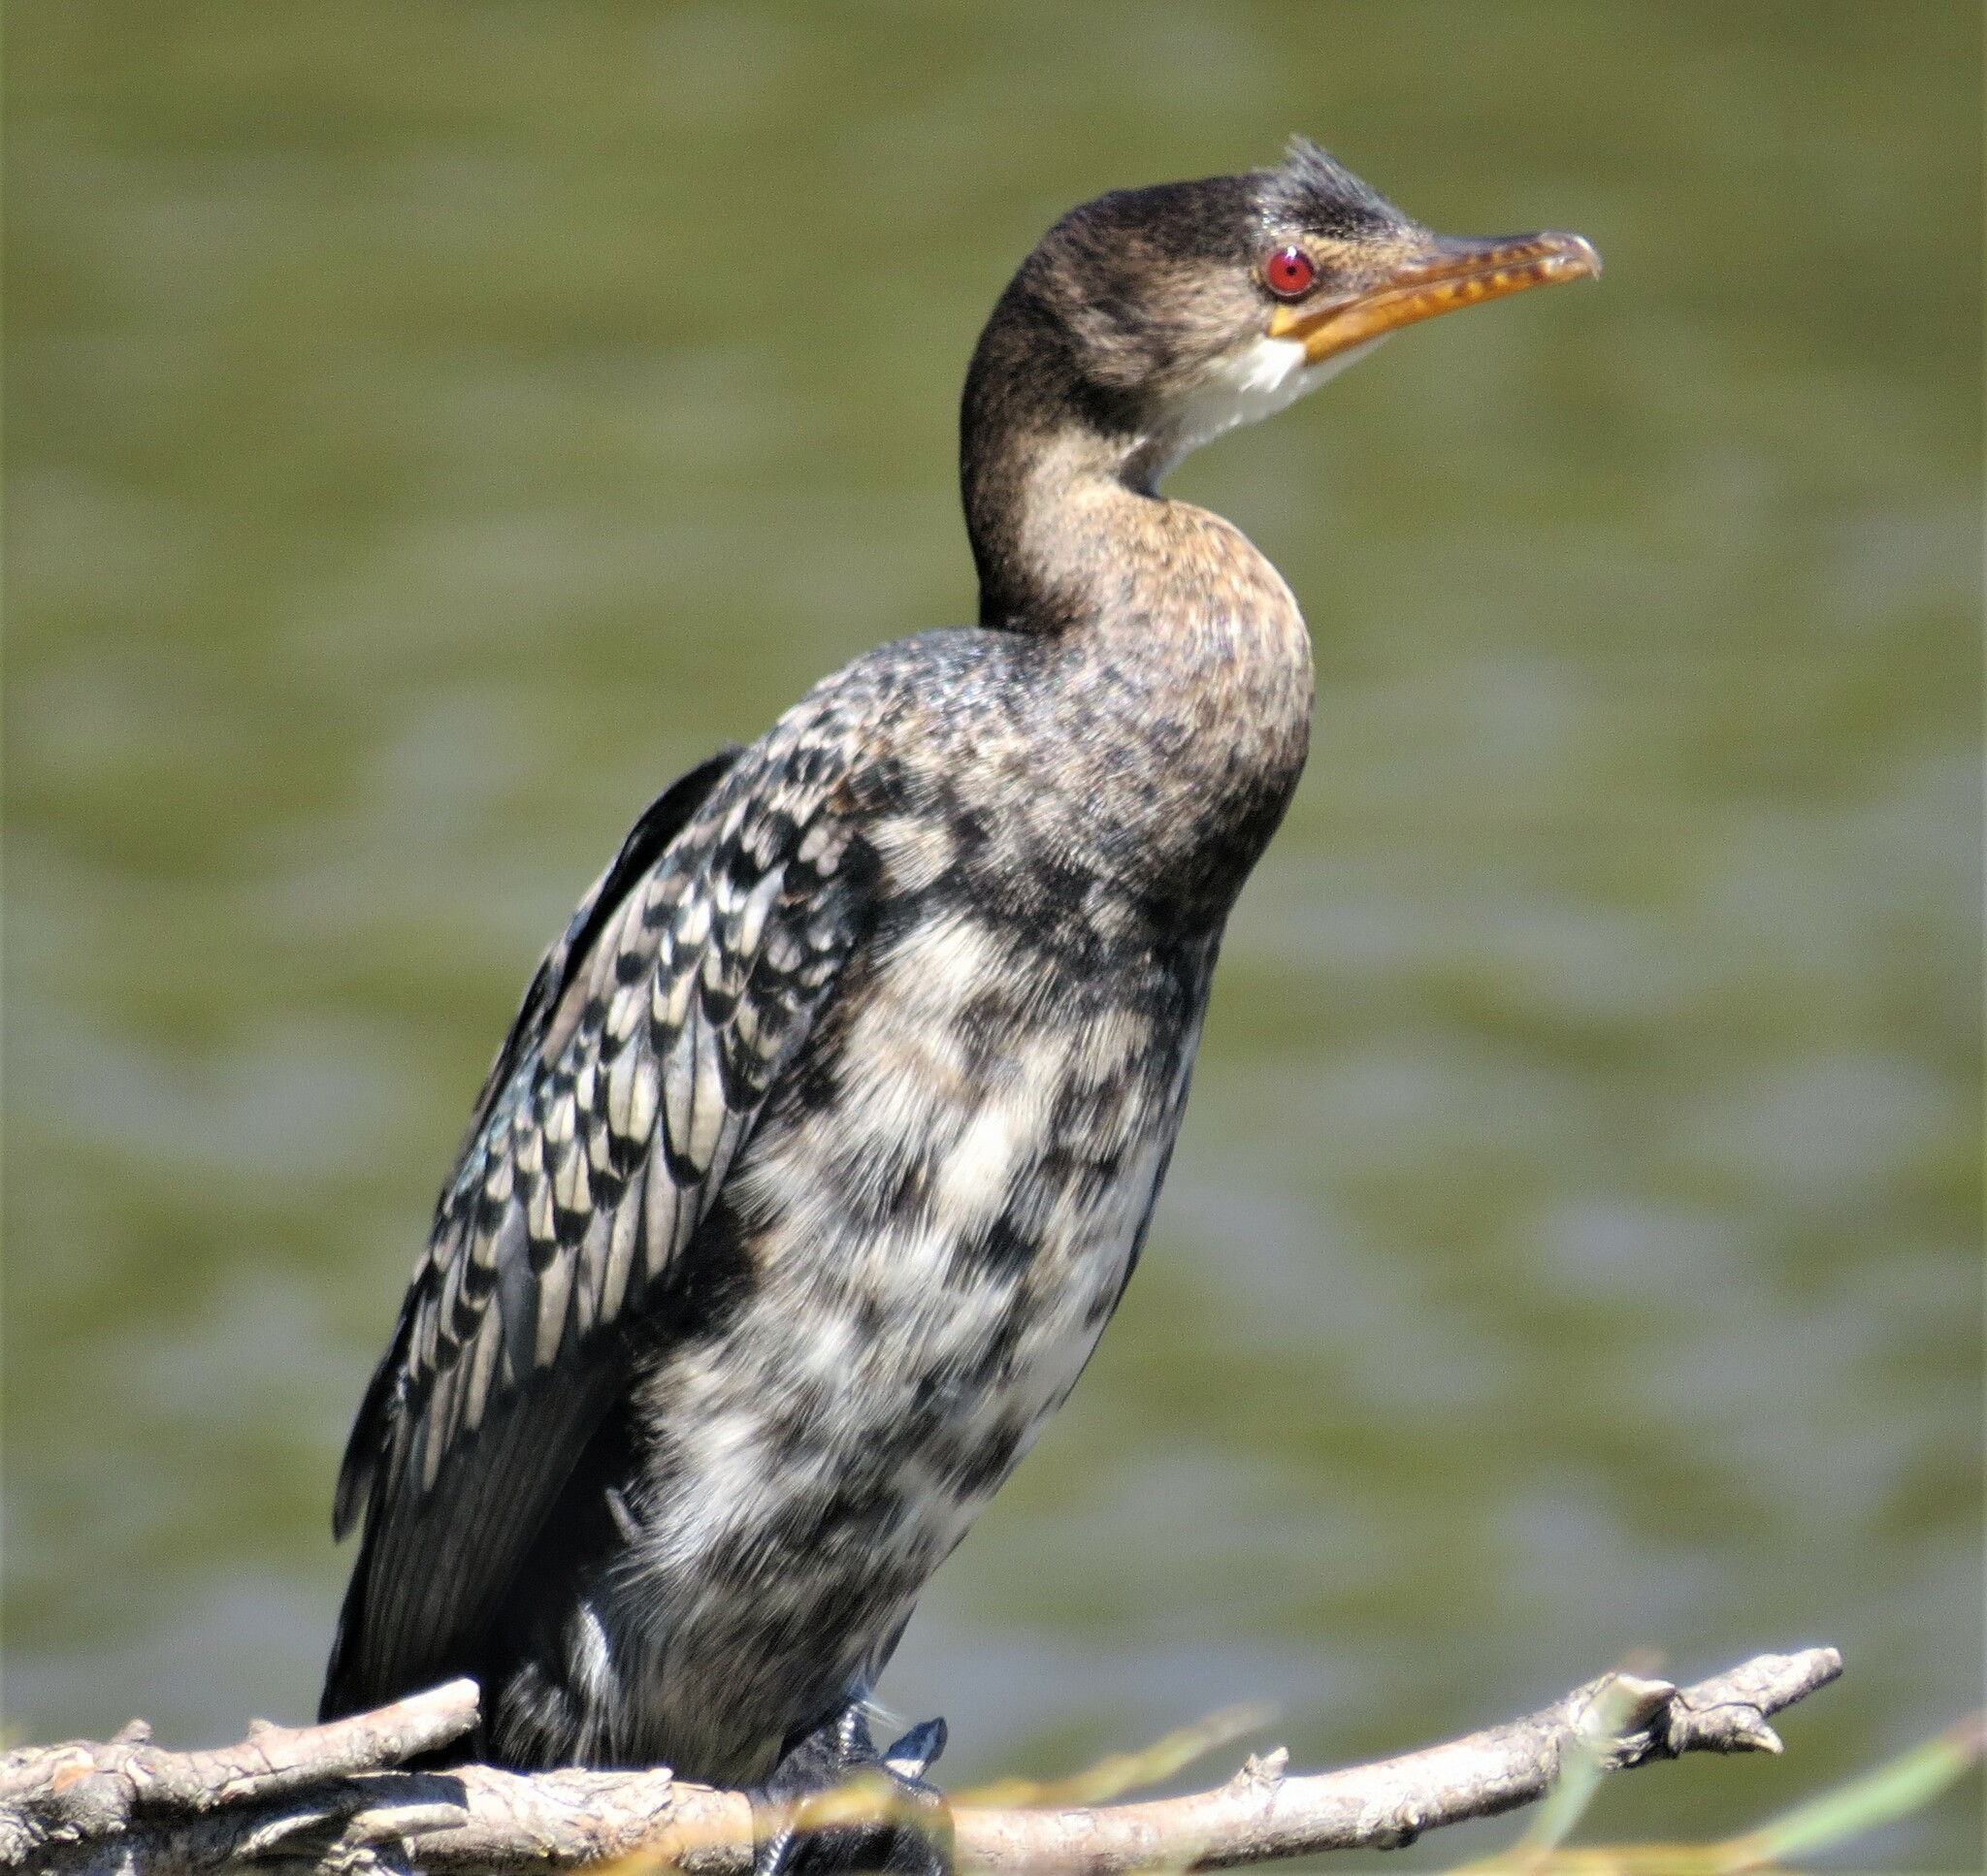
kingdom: Animalia
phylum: Chordata
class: Aves
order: Suliformes
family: Phalacrocoracidae
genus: Microcarbo
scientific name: Microcarbo africanus
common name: Long-tailed cormorant
